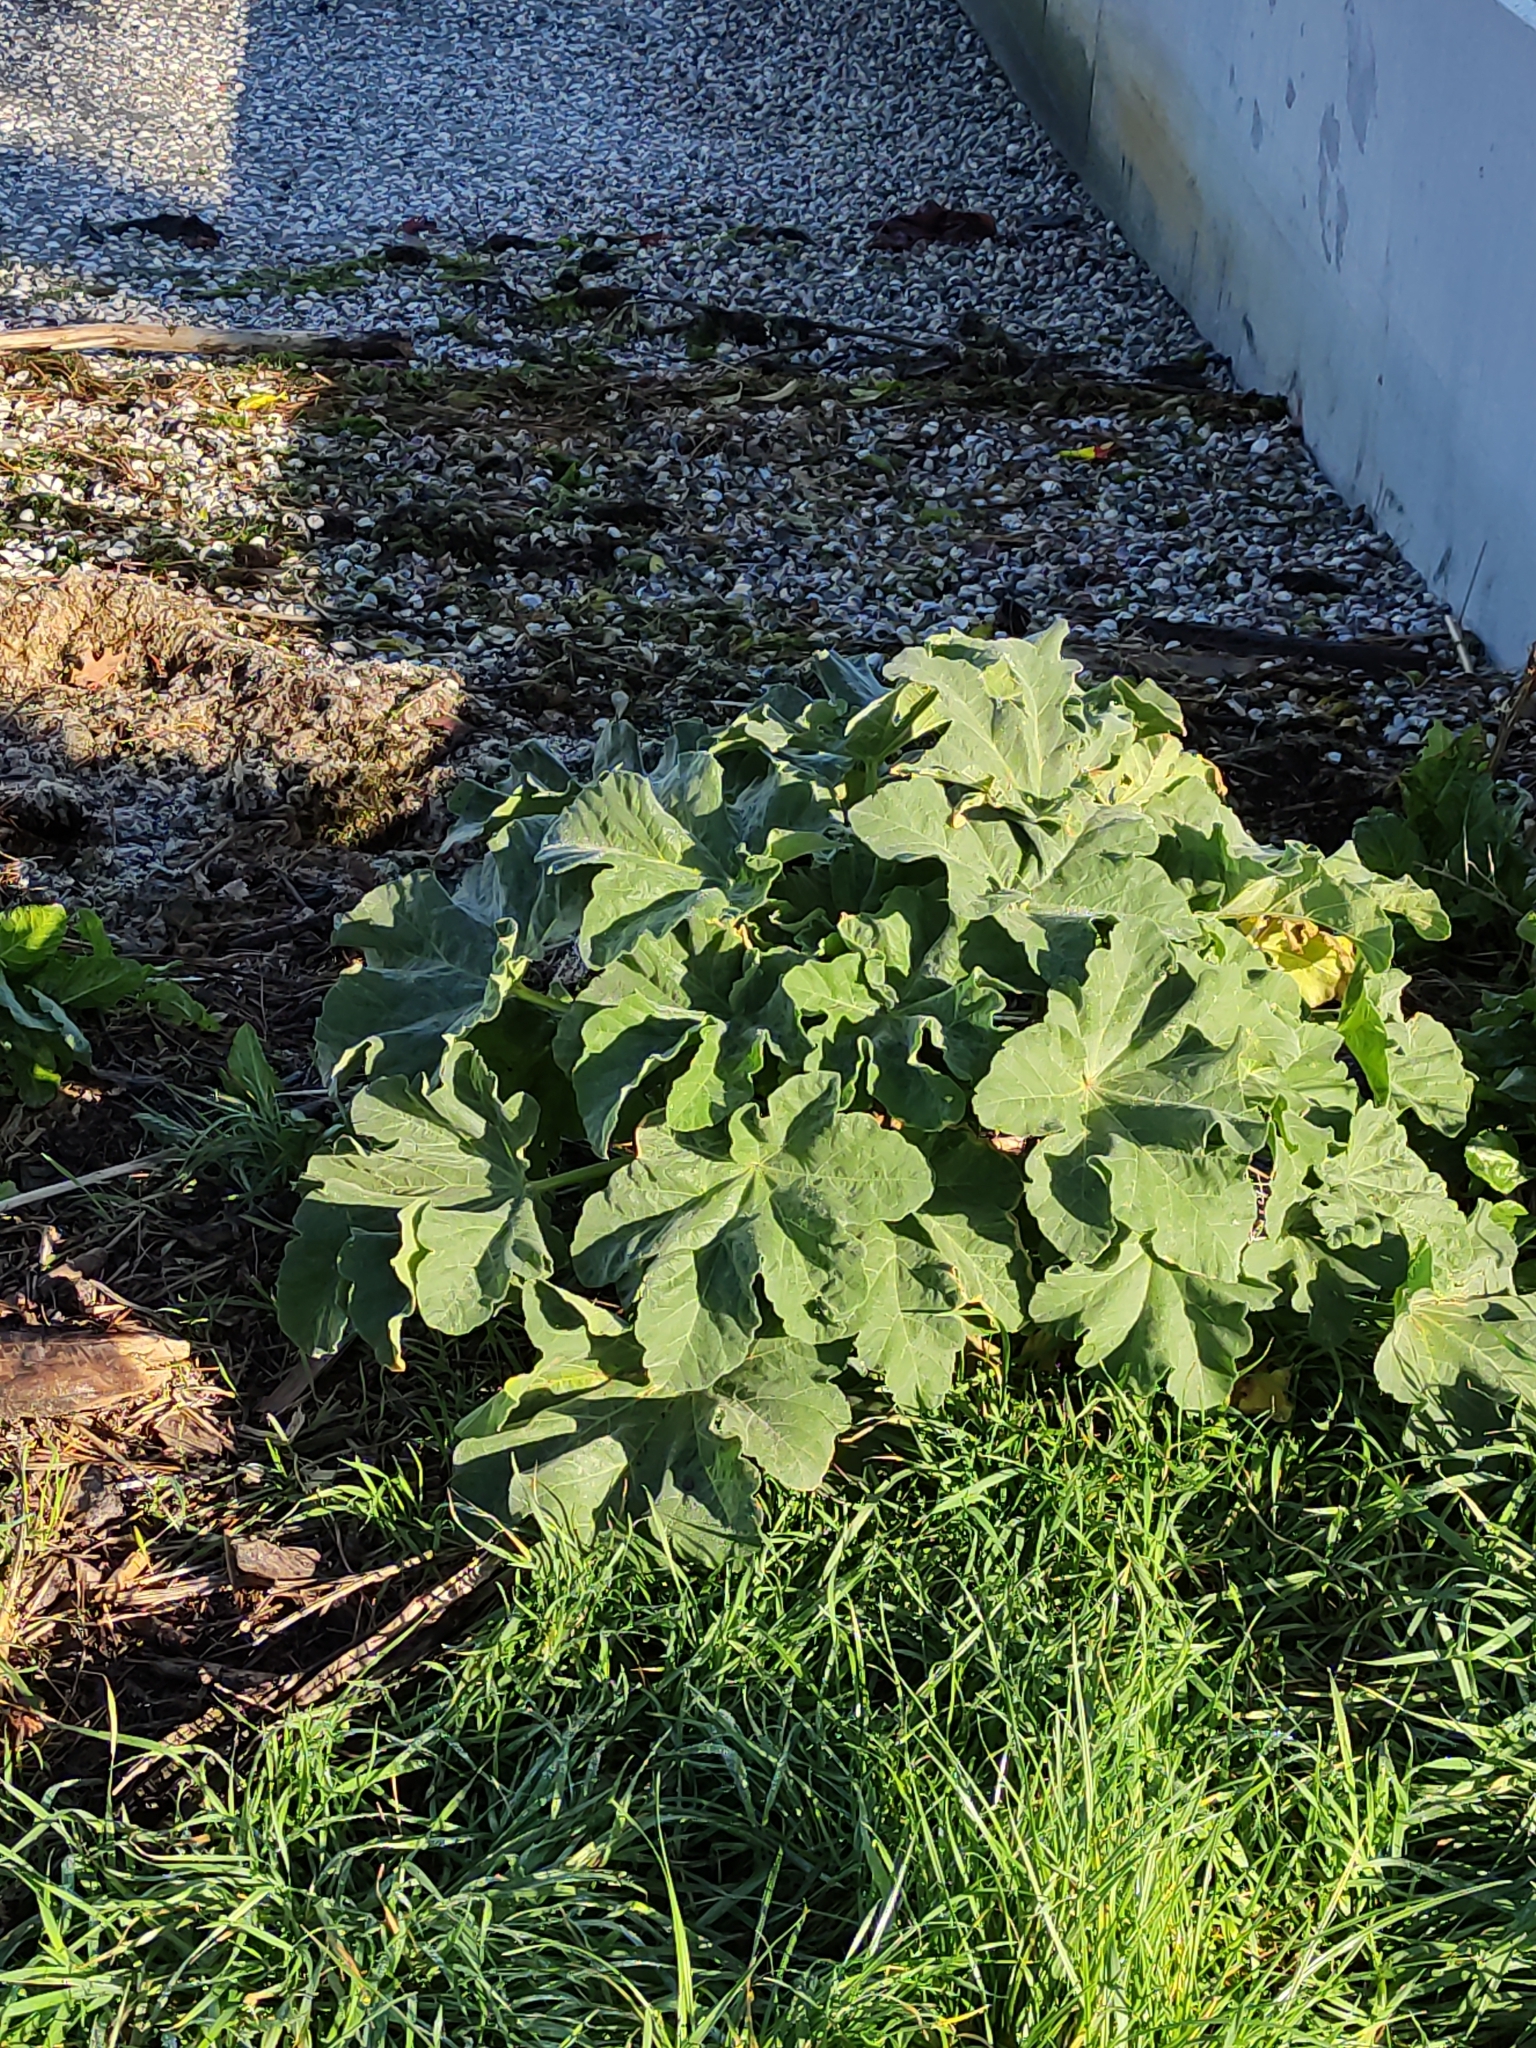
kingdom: Plantae
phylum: Tracheophyta
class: Magnoliopsida
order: Malvales
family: Malvaceae
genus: Malva
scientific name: Malva arborea
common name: Tree mallow
